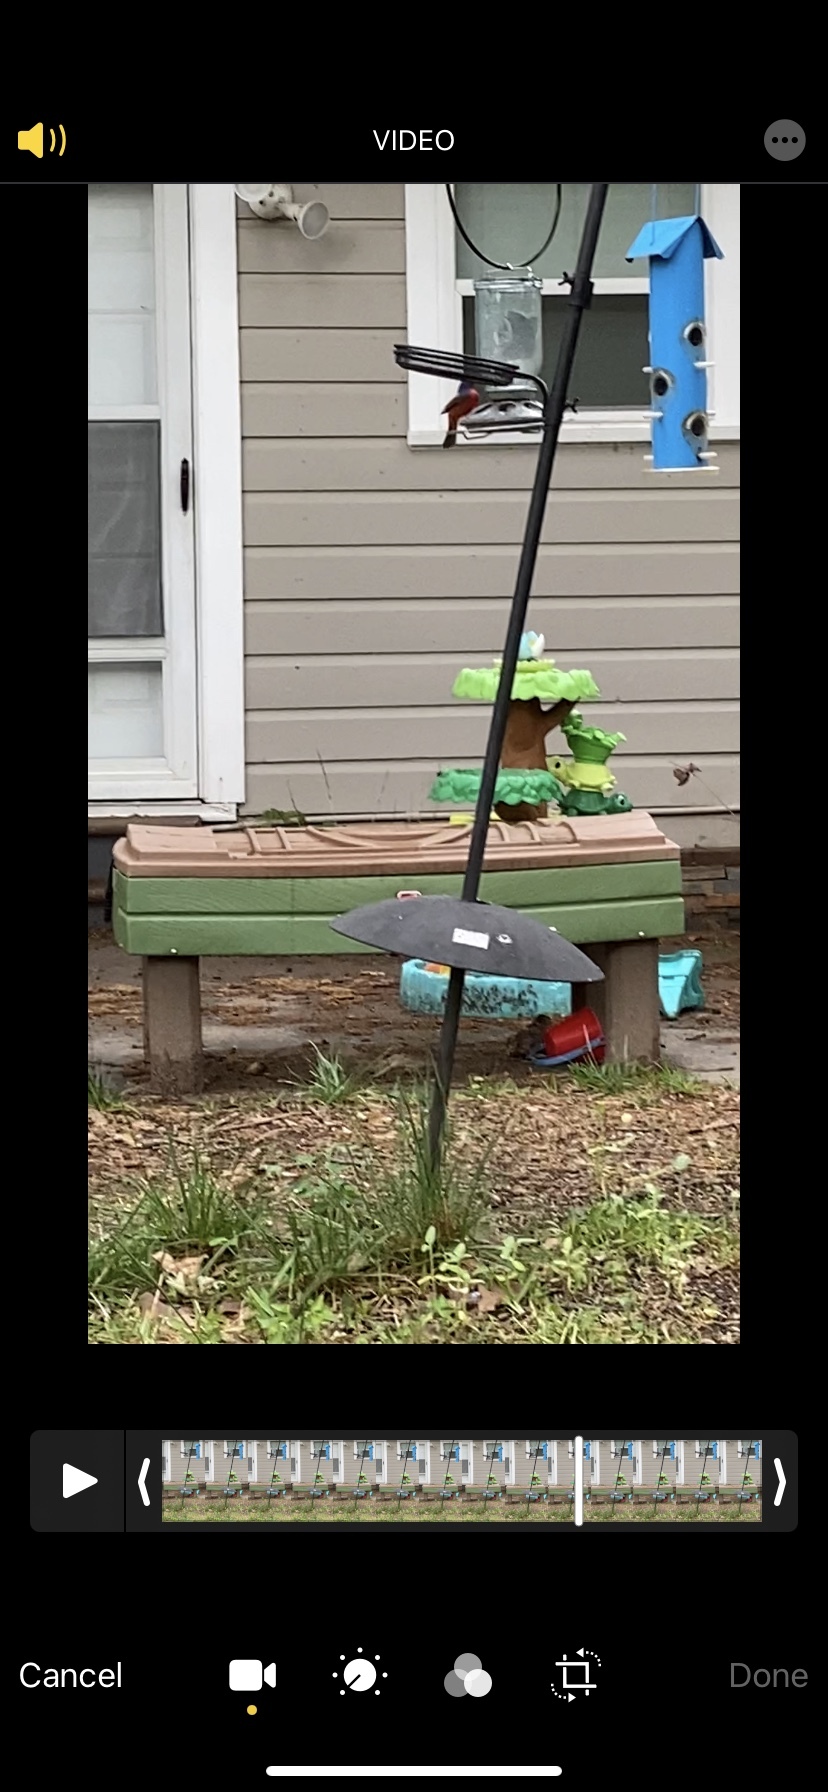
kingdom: Animalia
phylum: Chordata
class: Aves
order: Passeriformes
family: Cardinalidae
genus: Passerina
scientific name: Passerina ciris
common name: Painted bunting
